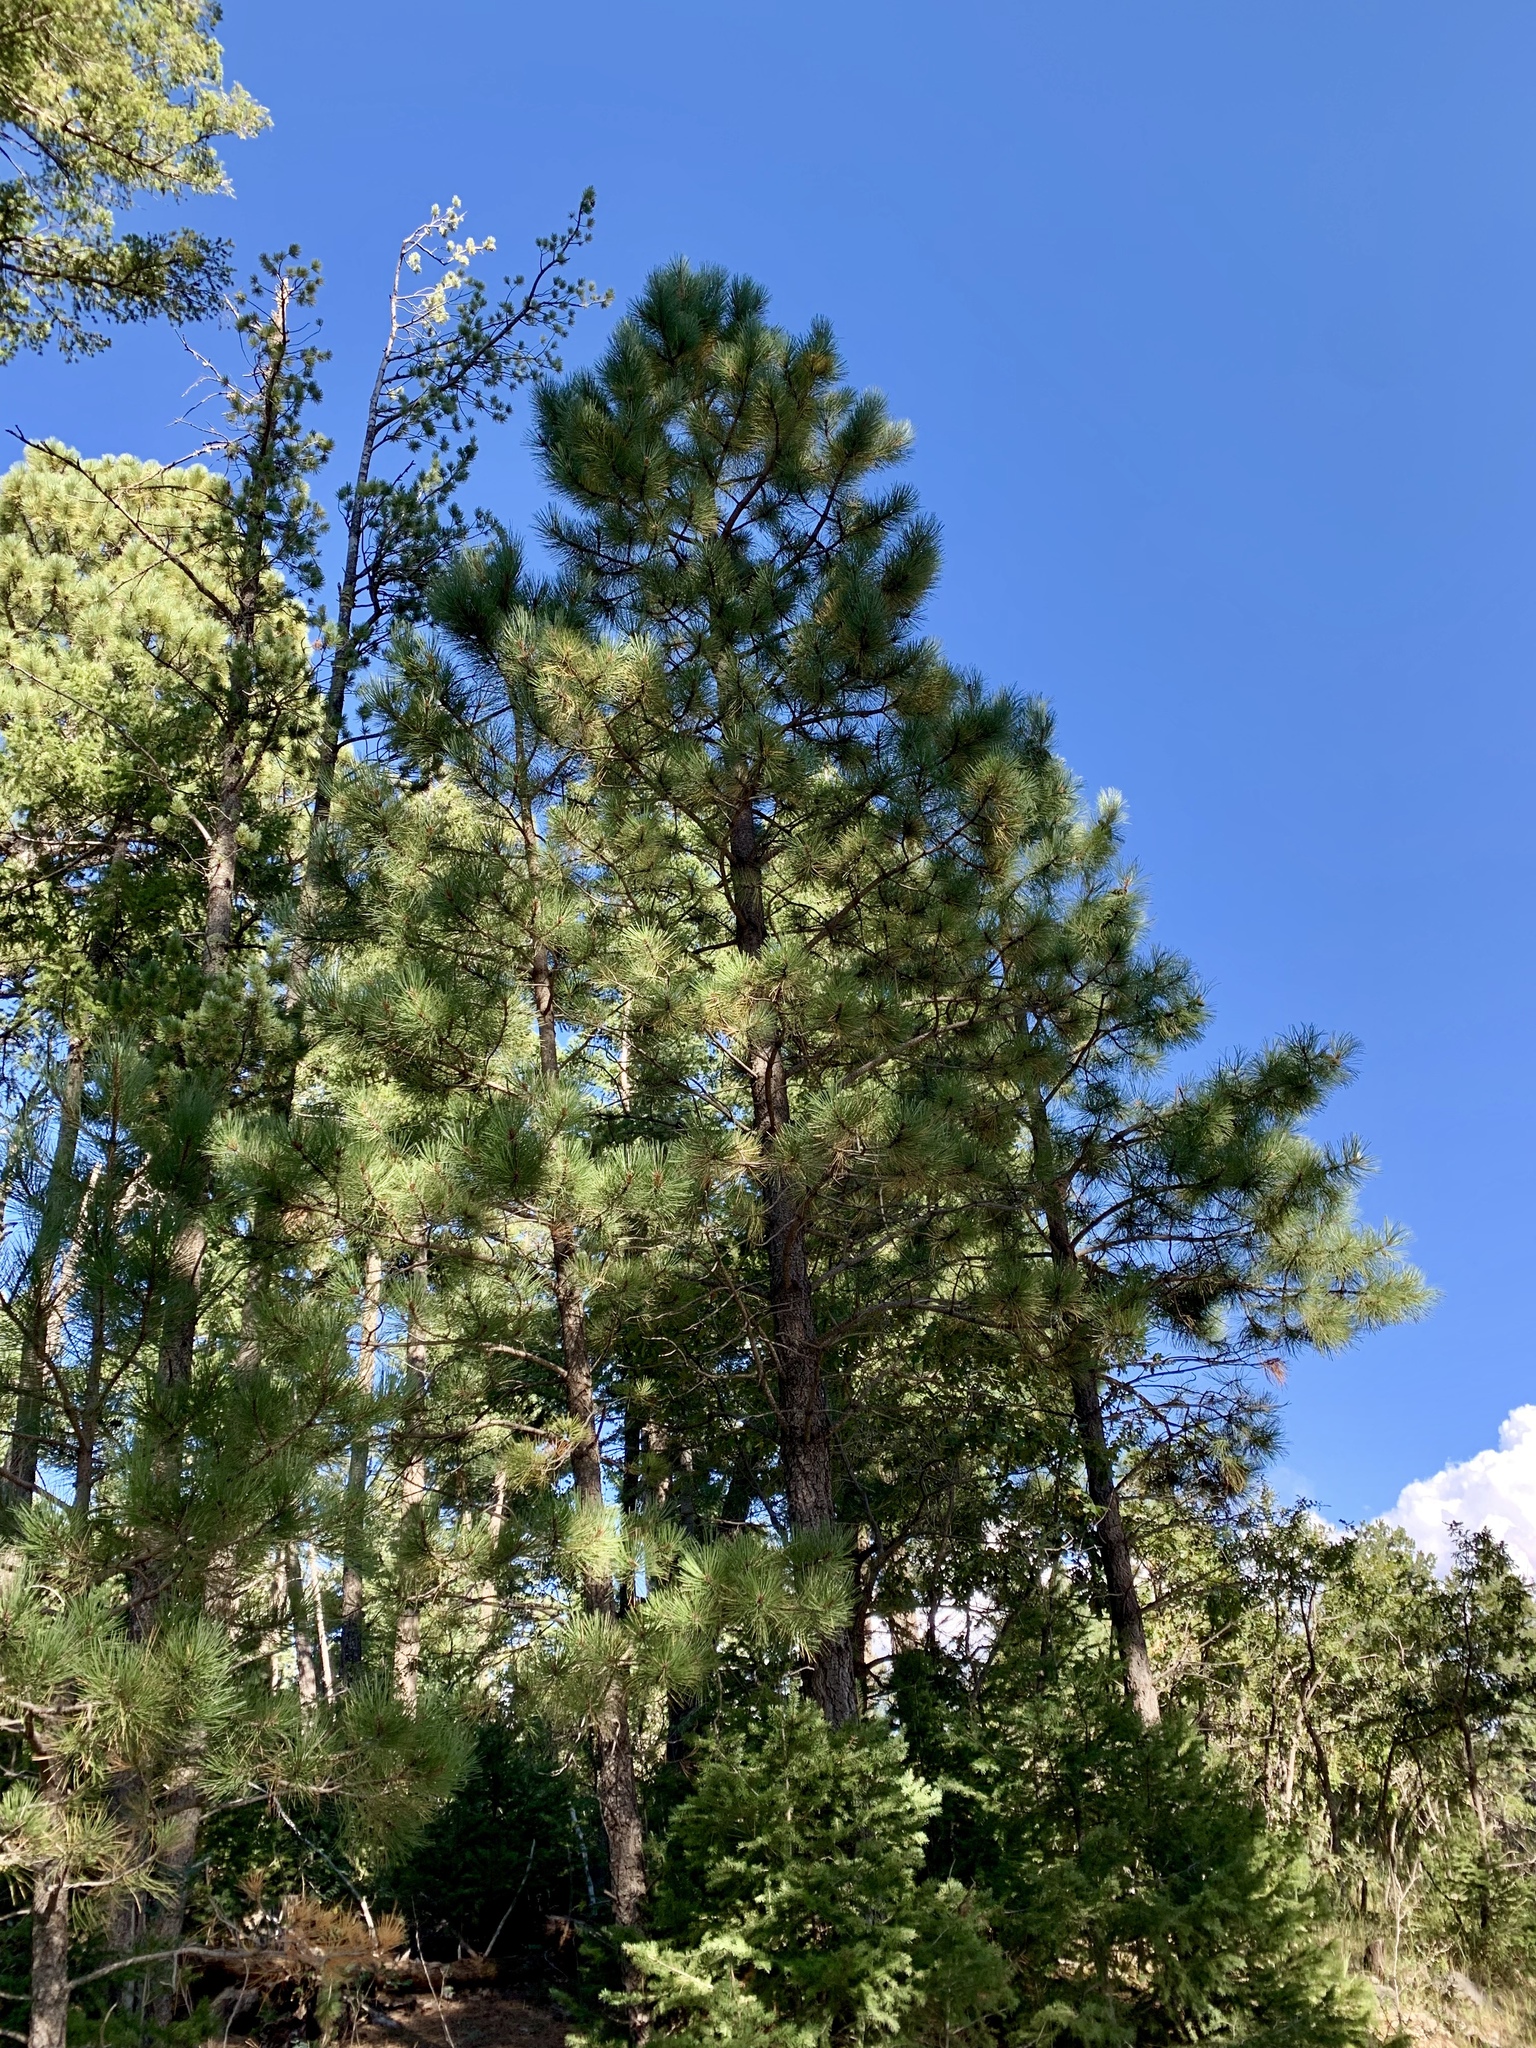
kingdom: Plantae
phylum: Tracheophyta
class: Pinopsida
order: Pinales
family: Pinaceae
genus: Pinus
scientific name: Pinus ponderosa
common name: Western yellow-pine
